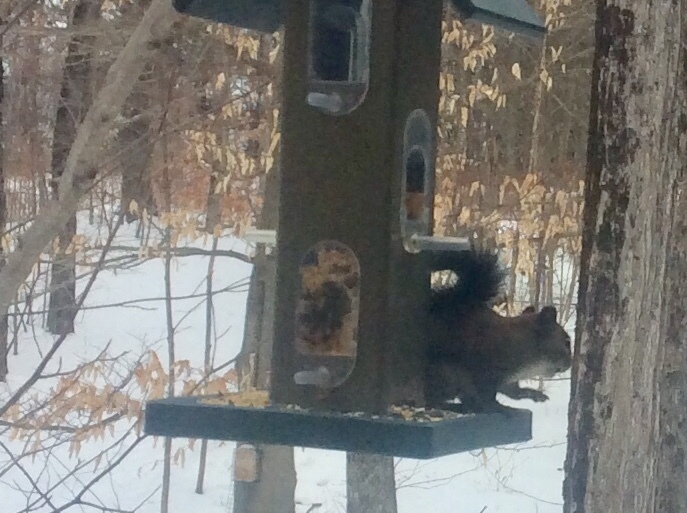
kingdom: Animalia
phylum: Chordata
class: Mammalia
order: Rodentia
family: Sciuridae
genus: Tamiasciurus
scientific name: Tamiasciurus hudsonicus
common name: Red squirrel
